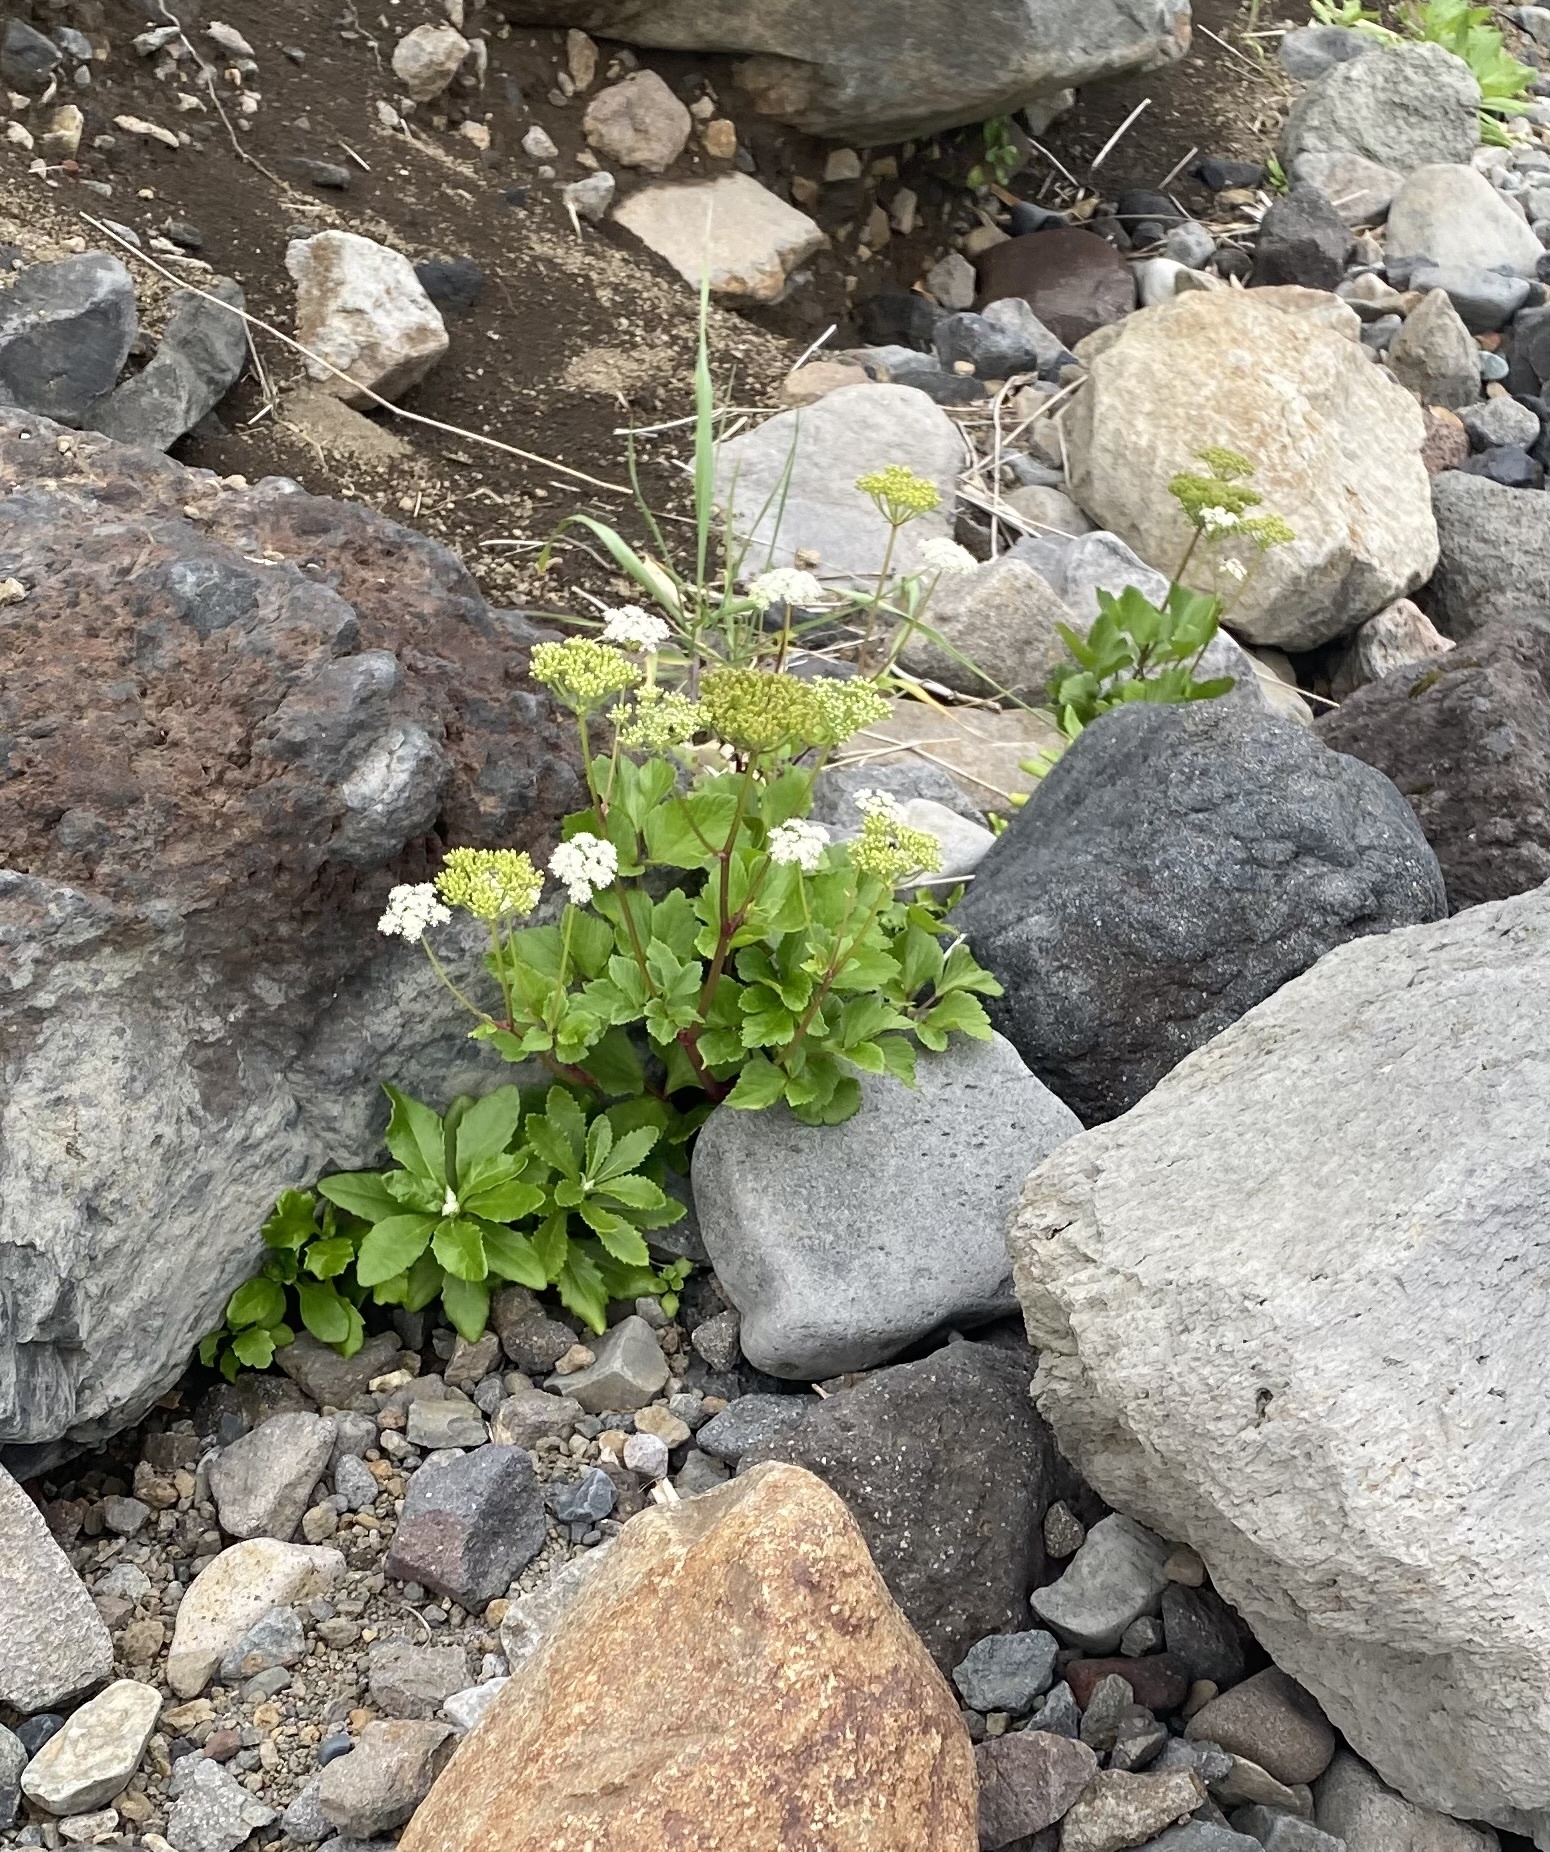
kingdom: Plantae
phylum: Tracheophyta
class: Magnoliopsida
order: Apiales
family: Apiaceae
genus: Ligusticum
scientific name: Ligusticum scothicum
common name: Beach lovage
